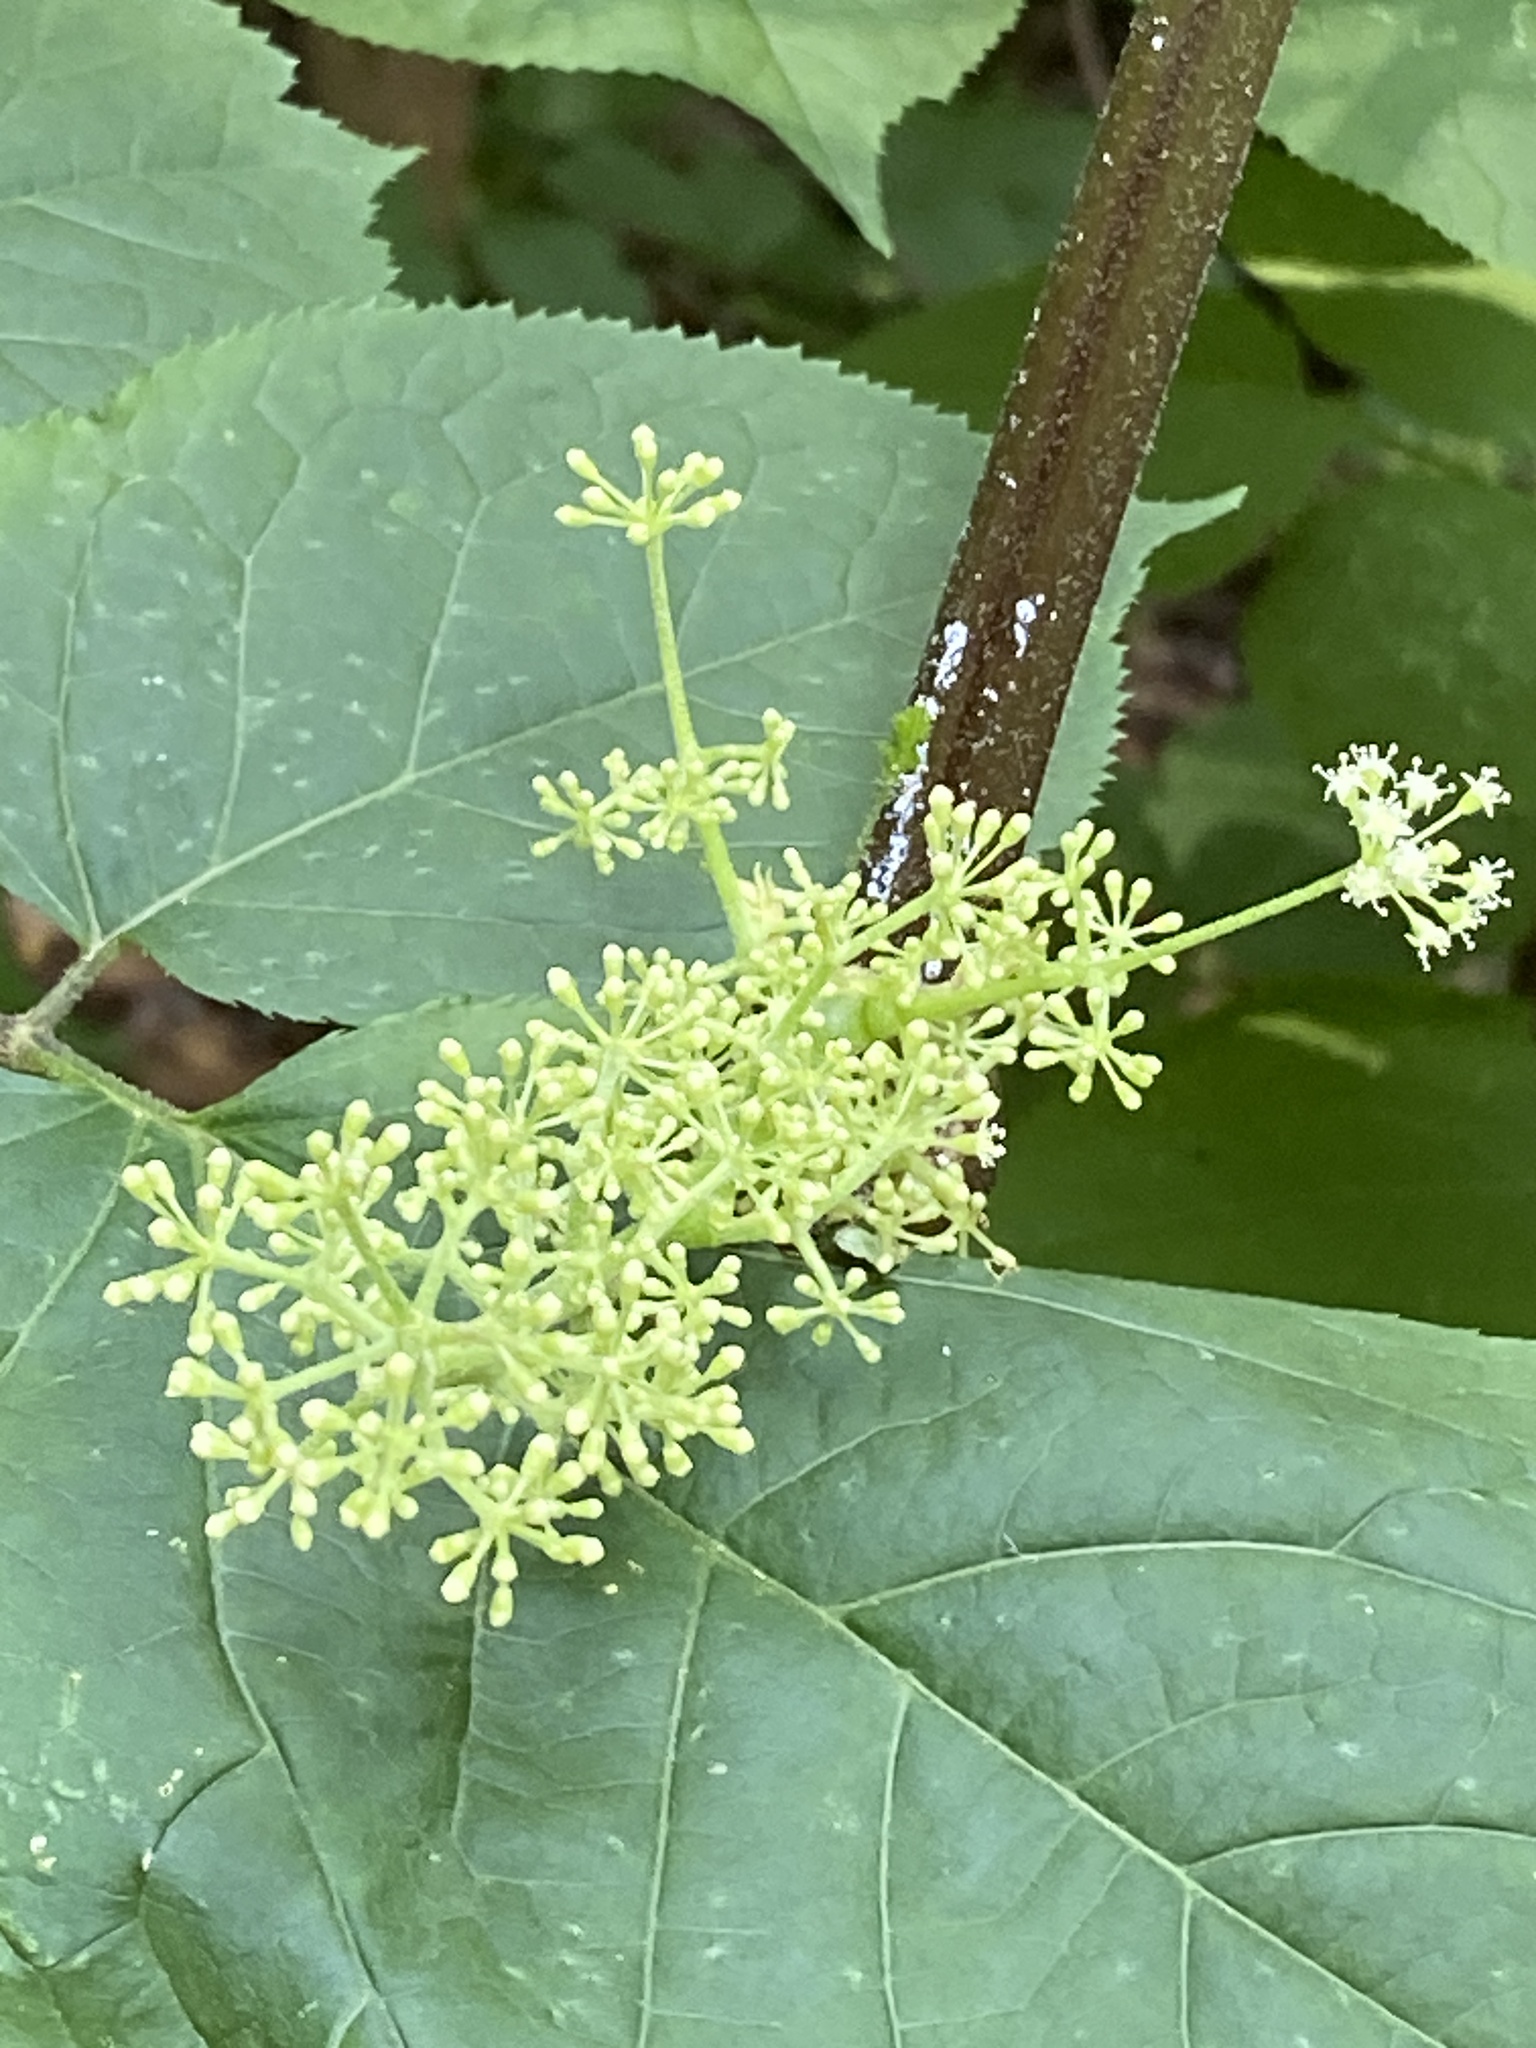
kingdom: Plantae
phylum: Tracheophyta
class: Magnoliopsida
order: Apiales
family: Araliaceae
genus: Aralia
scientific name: Aralia racemosa
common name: American-spikenard
